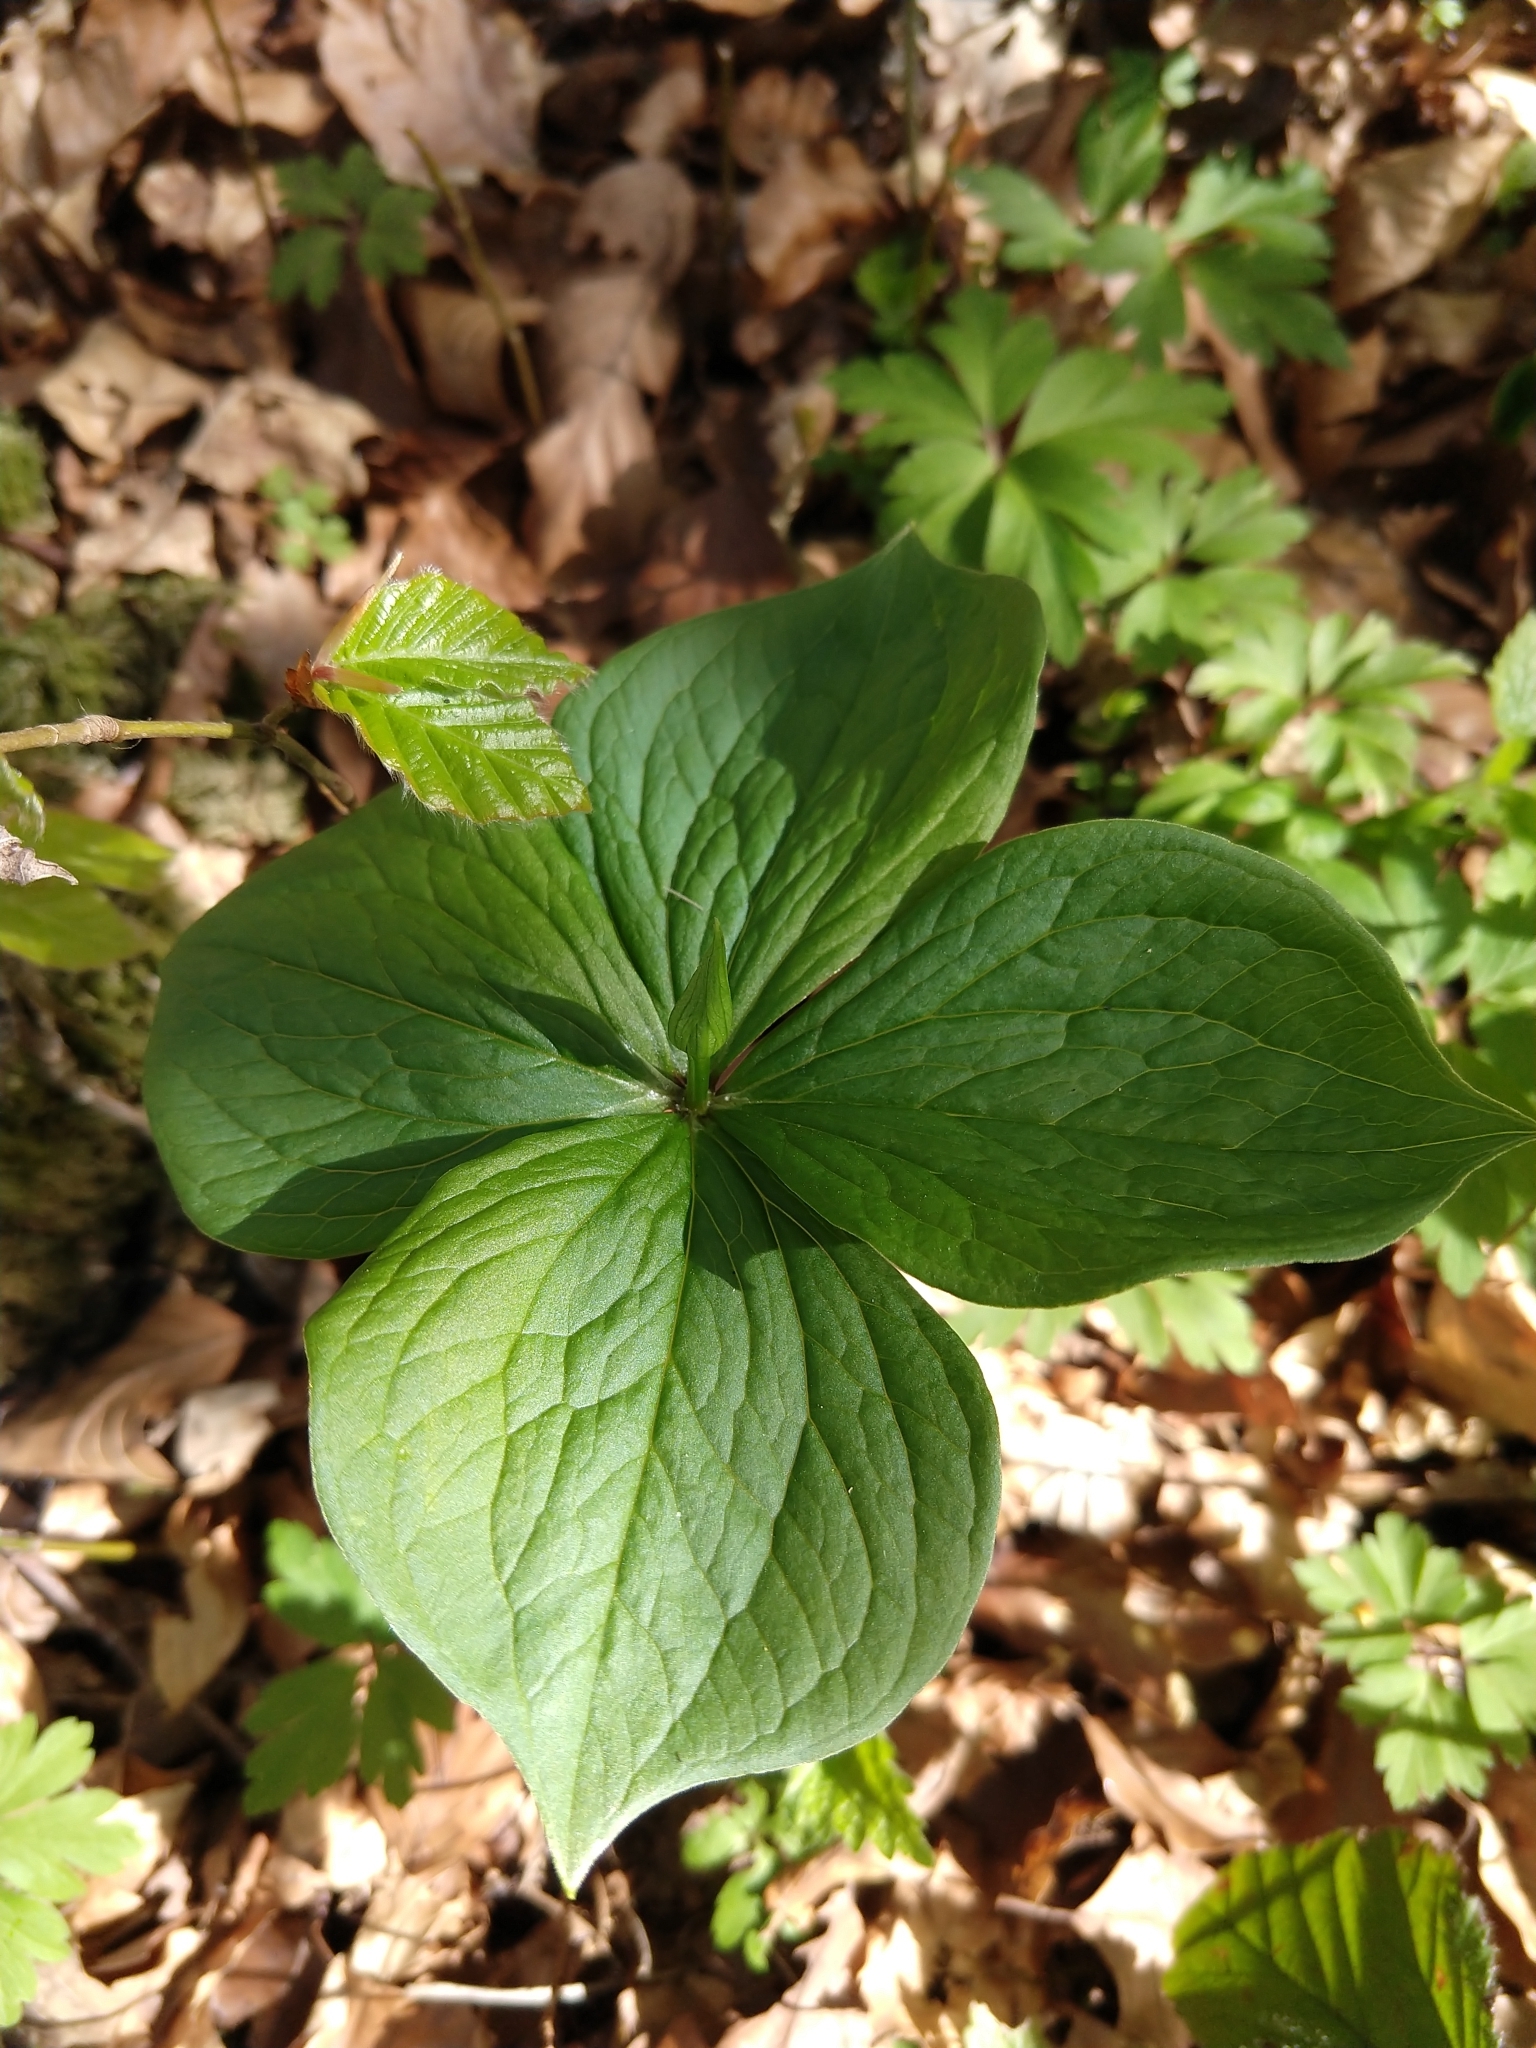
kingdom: Plantae
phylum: Tracheophyta
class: Liliopsida
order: Liliales
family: Melanthiaceae
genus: Paris
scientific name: Paris quadrifolia
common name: Herb-paris
